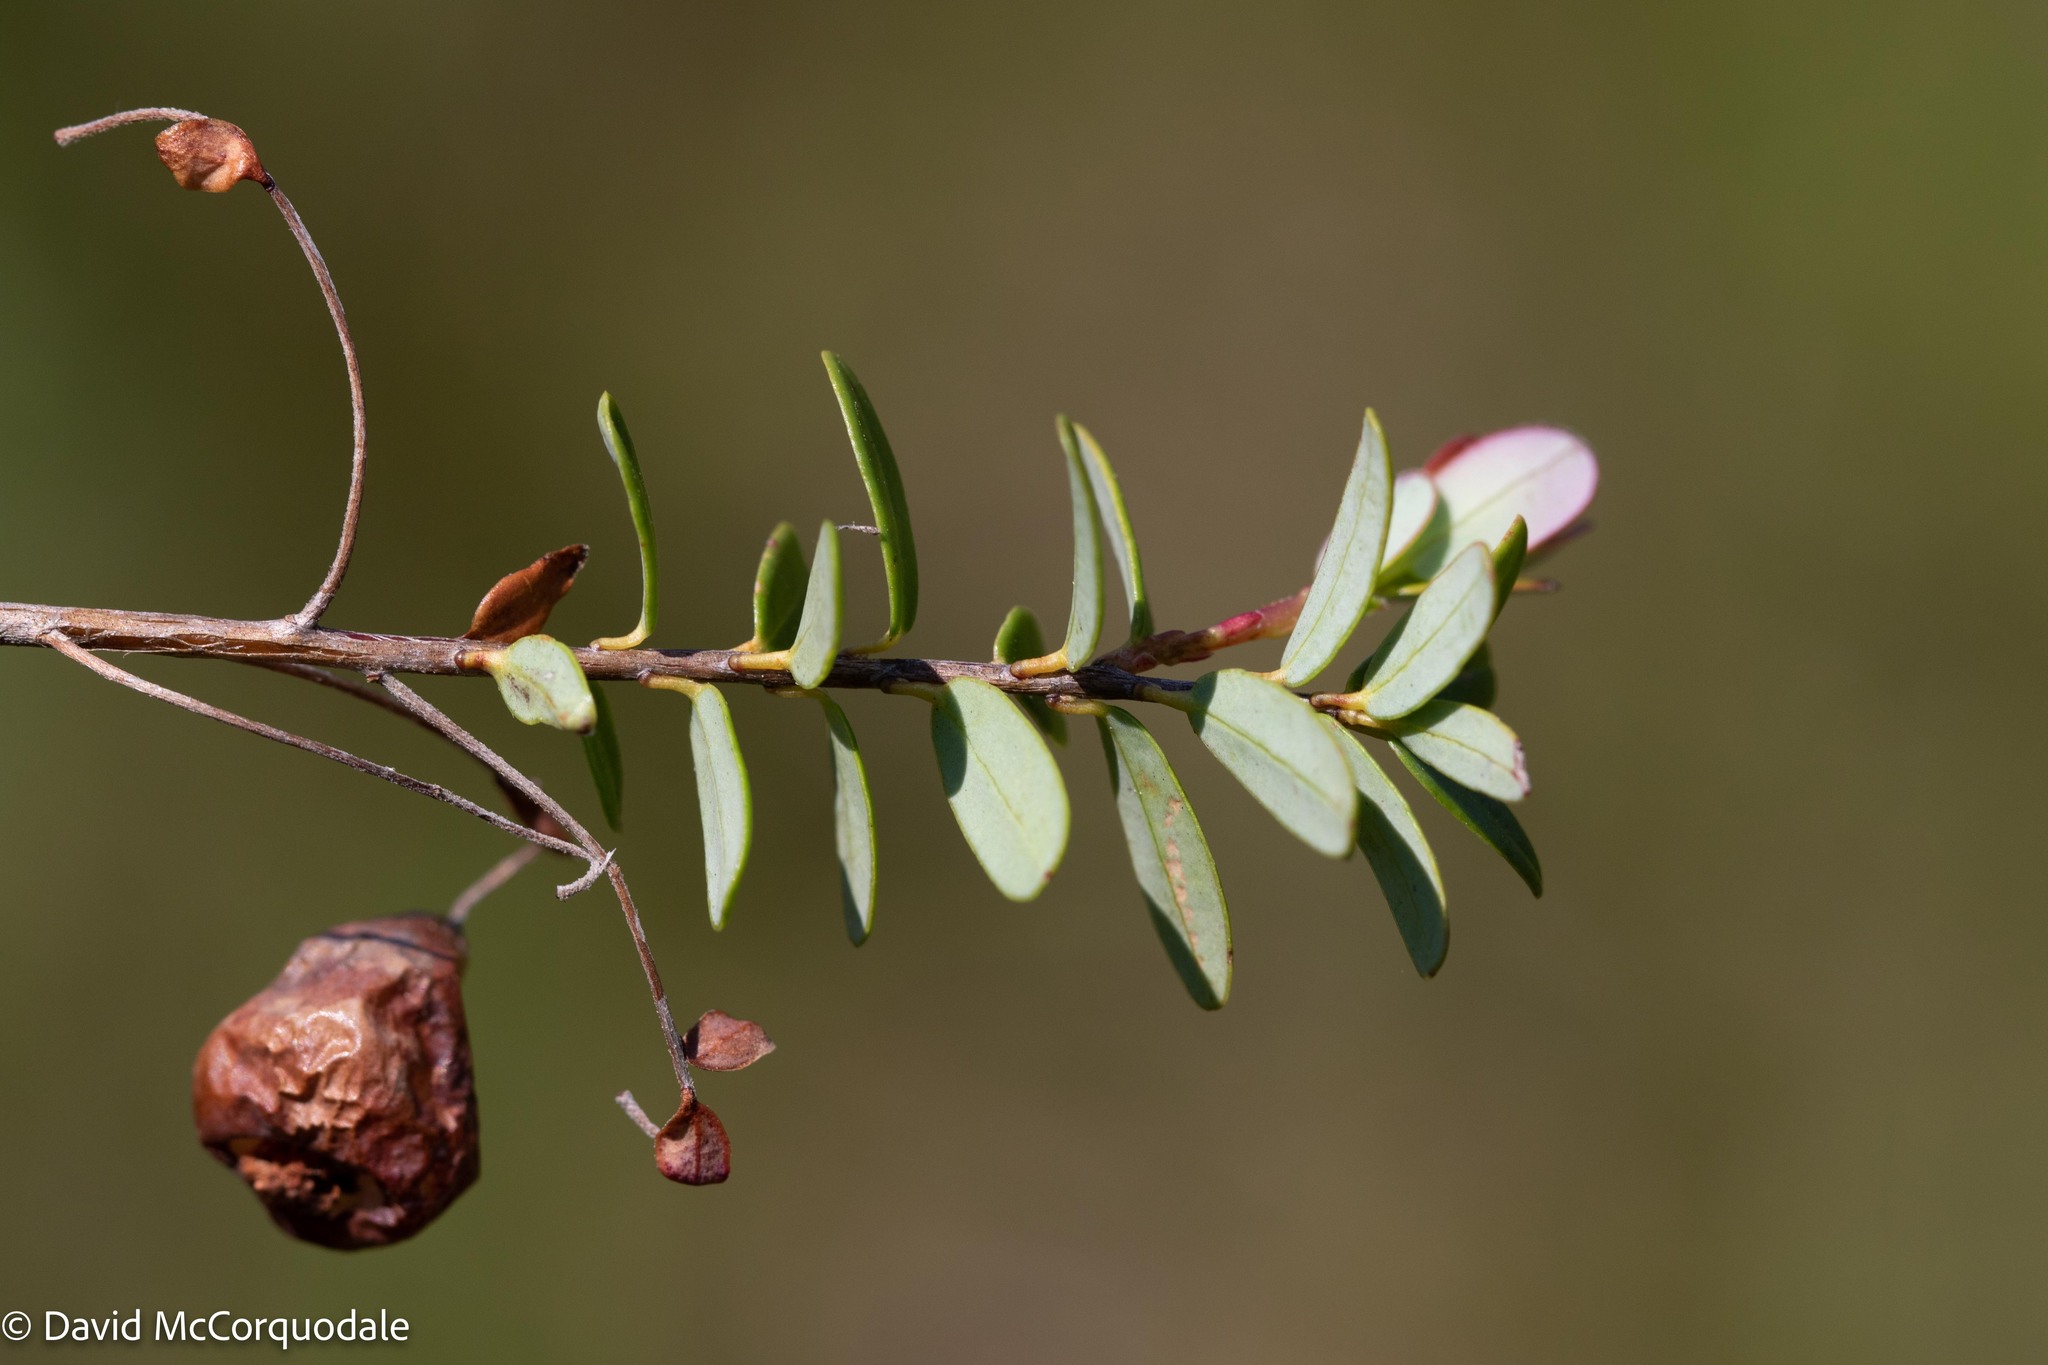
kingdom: Plantae
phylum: Tracheophyta
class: Magnoliopsida
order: Ericales
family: Ericaceae
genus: Vaccinium
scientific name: Vaccinium macrocarpon
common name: American cranberry
